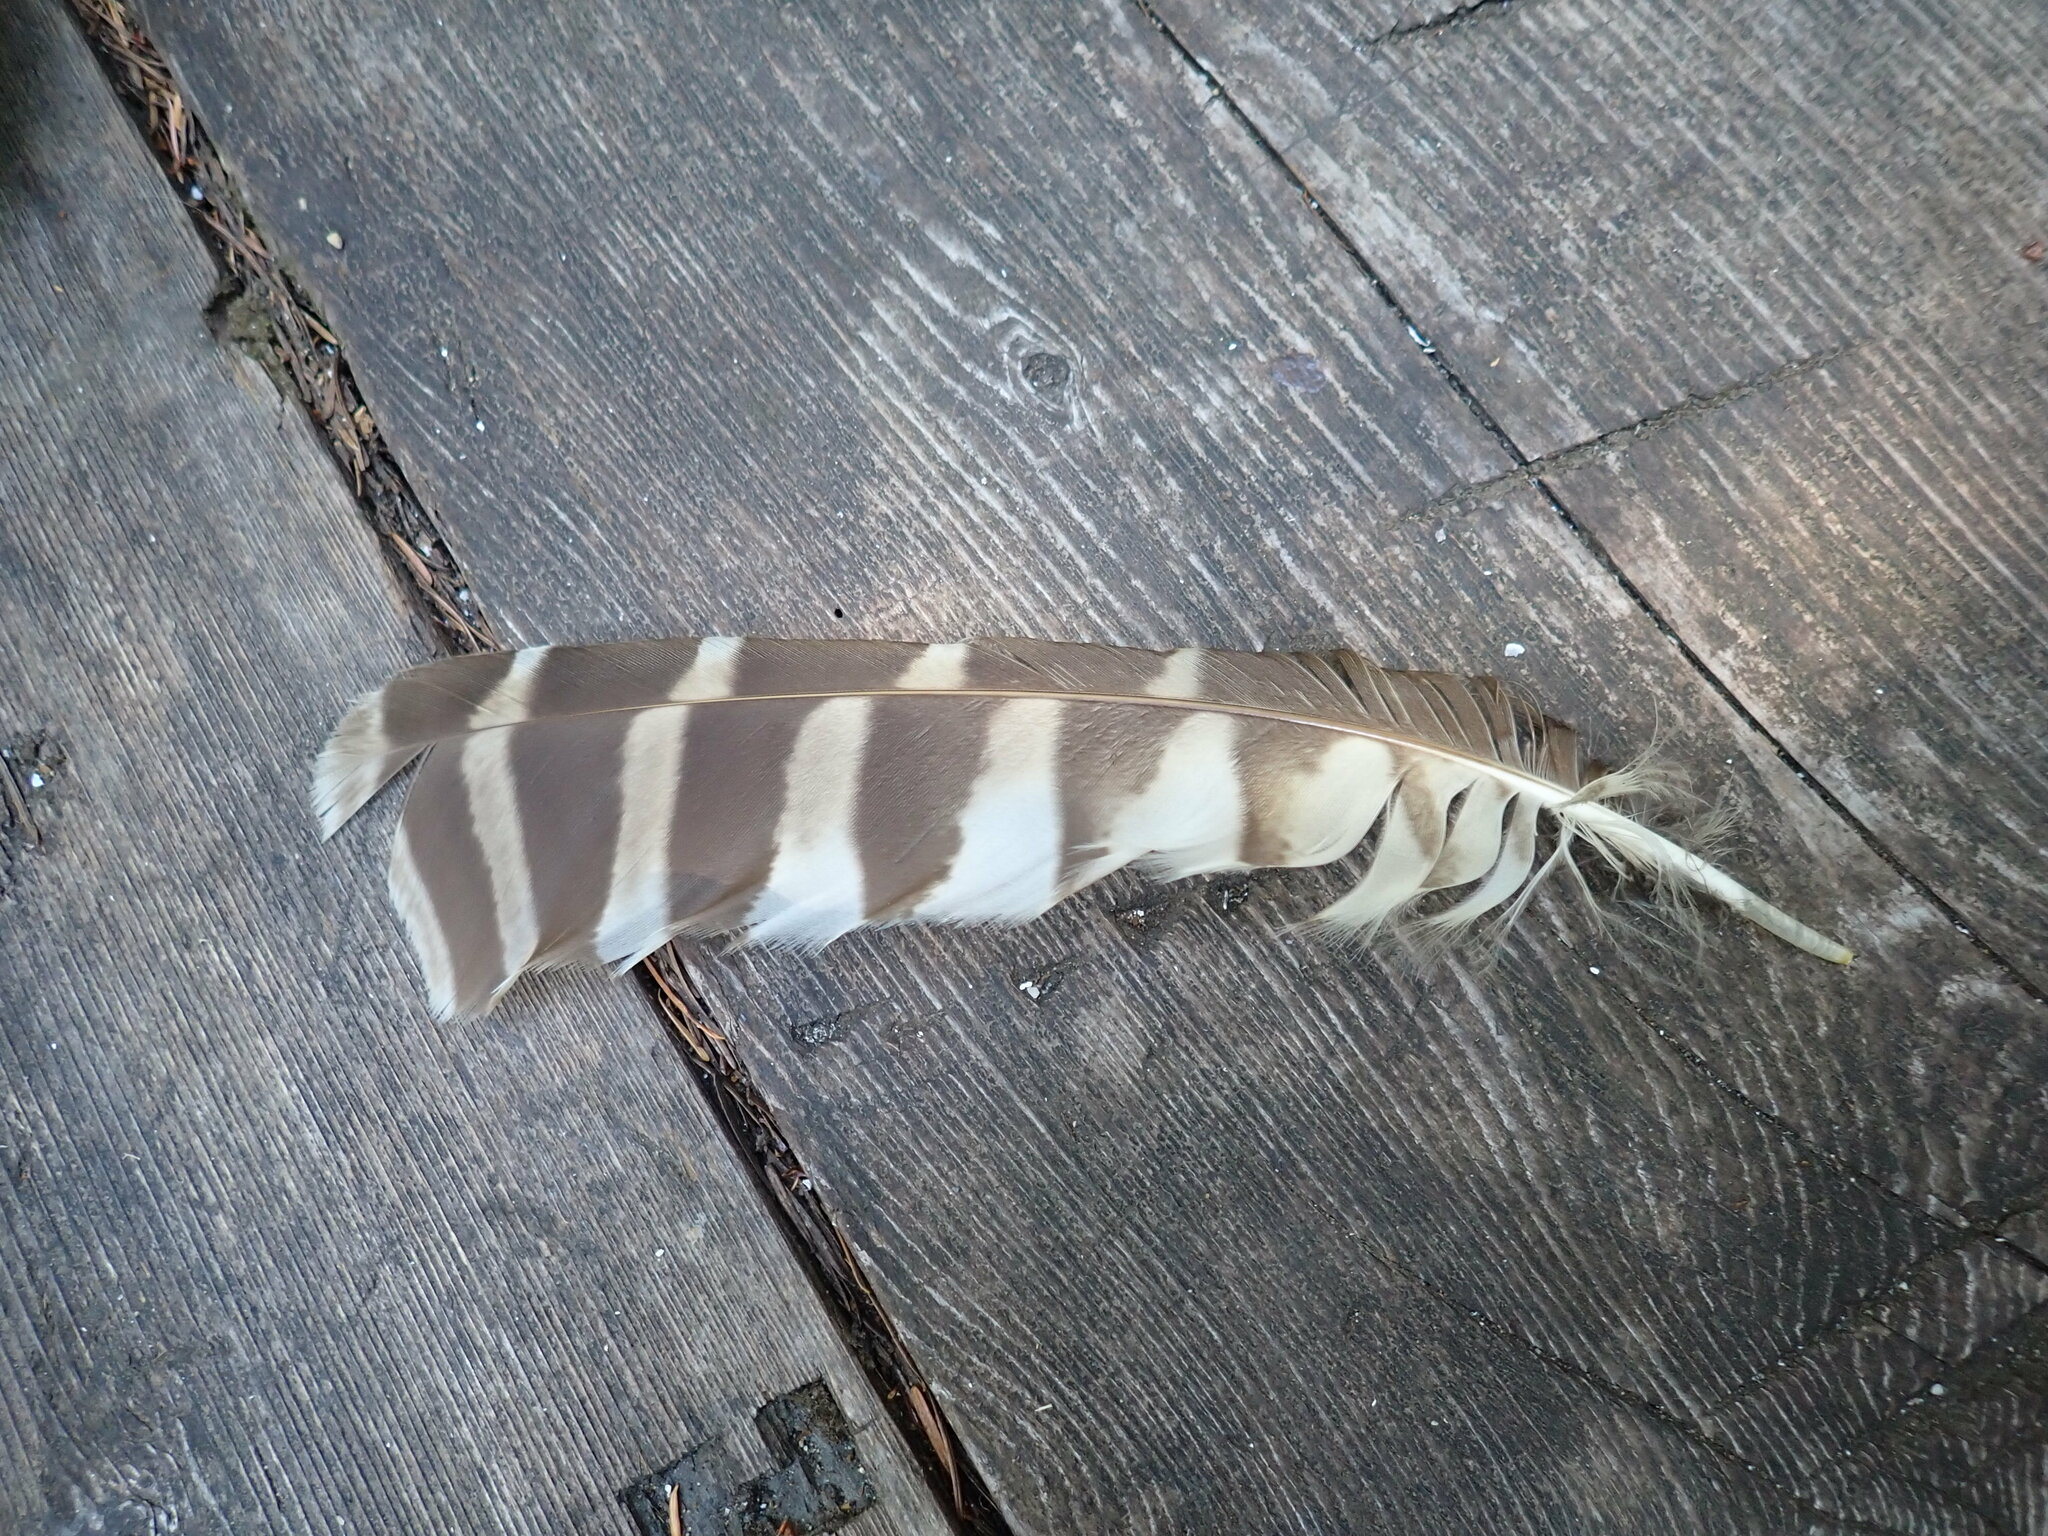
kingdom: Animalia
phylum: Chordata
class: Aves
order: Strigiformes
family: Strigidae
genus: Strix
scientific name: Strix varia
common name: Barred owl
